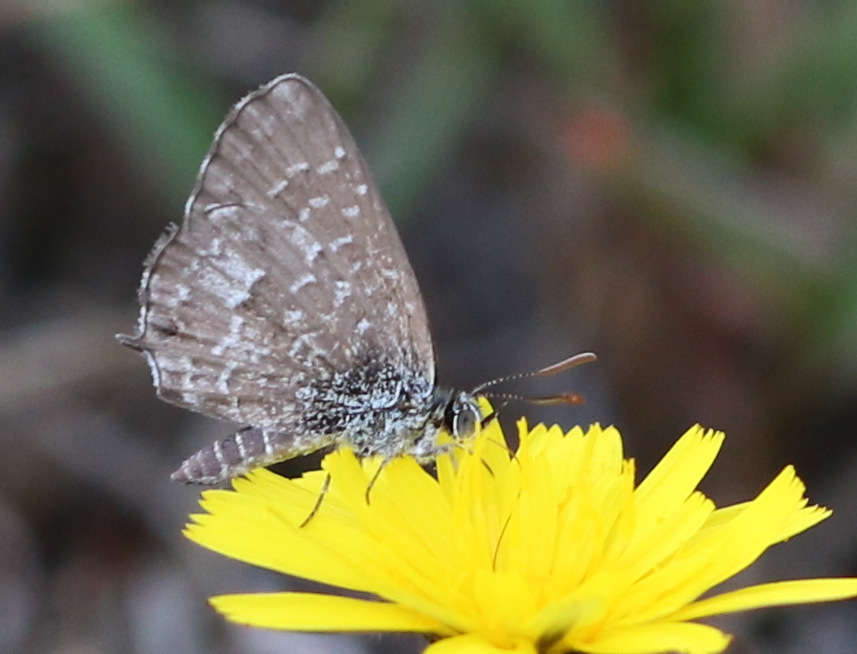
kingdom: Animalia
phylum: Arthropoda
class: Insecta
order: Lepidoptera
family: Lycaenidae
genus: Theclinesthes
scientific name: Theclinesthes serpentata
